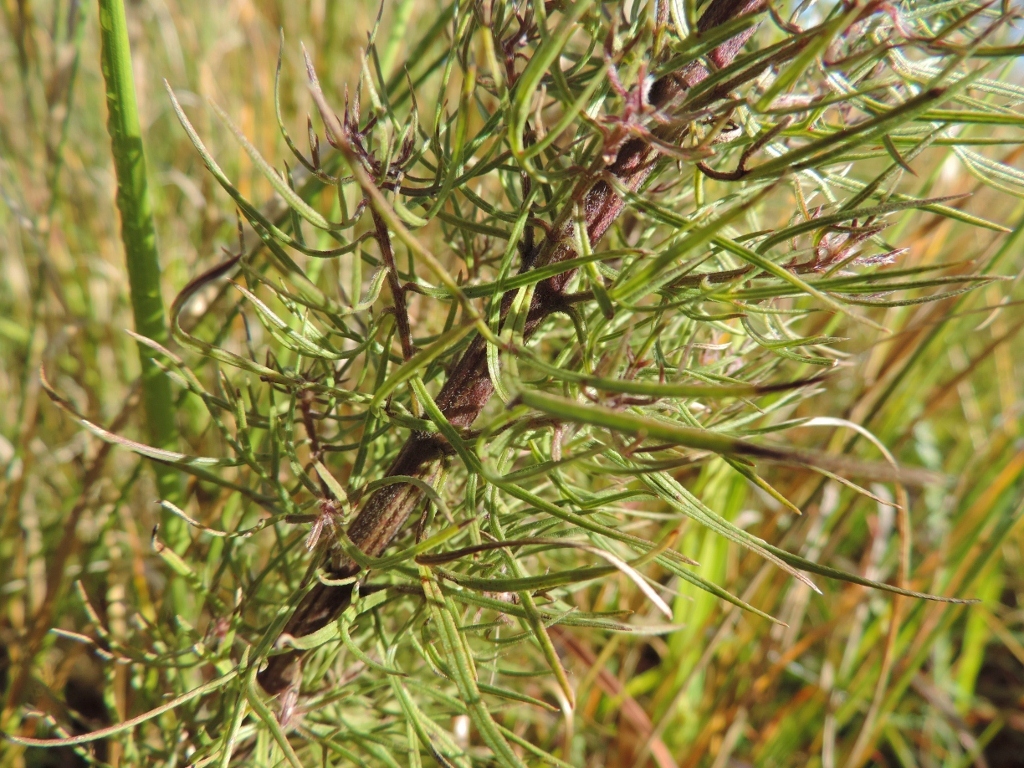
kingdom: Plantae
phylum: Tracheophyta
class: Magnoliopsida
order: Lamiales
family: Orobanchaceae
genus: Sopubia
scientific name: Sopubia karaguensis
